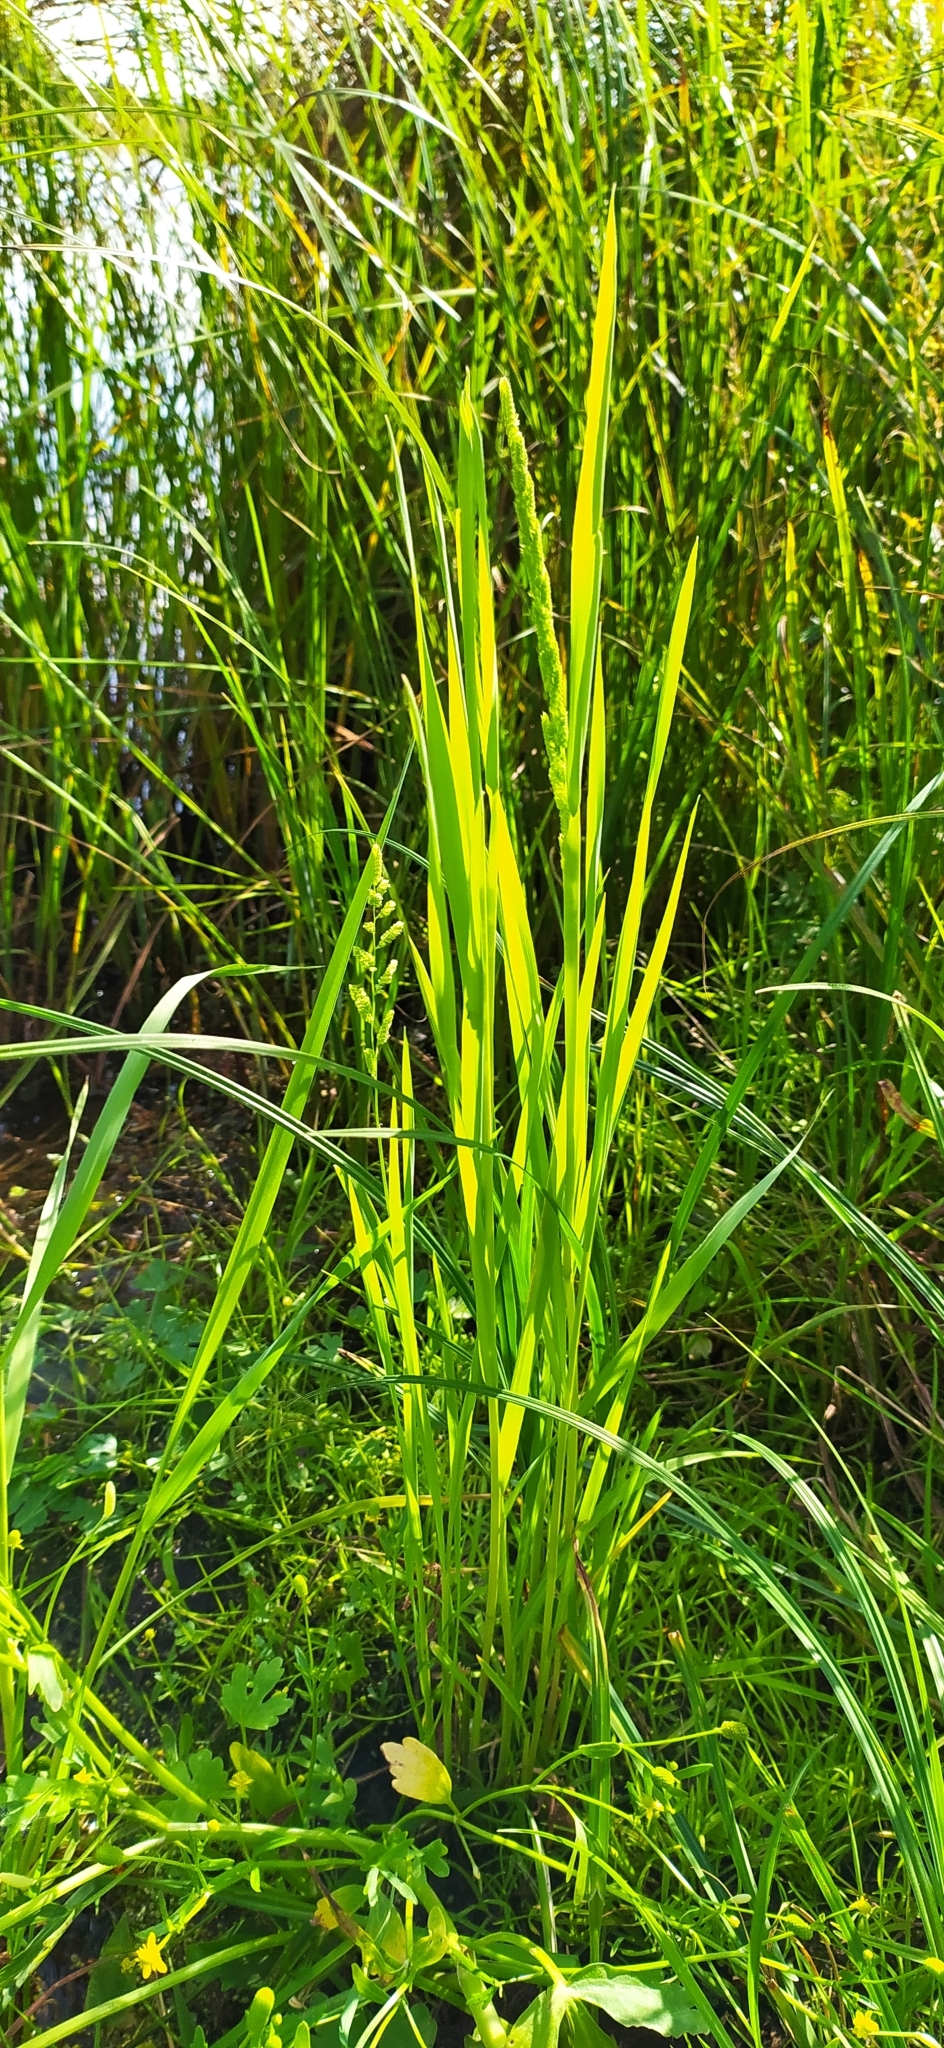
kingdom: Plantae
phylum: Tracheophyta
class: Liliopsida
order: Poales
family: Poaceae
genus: Beckmannia
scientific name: Beckmannia syzigachne
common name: American slough-grass
